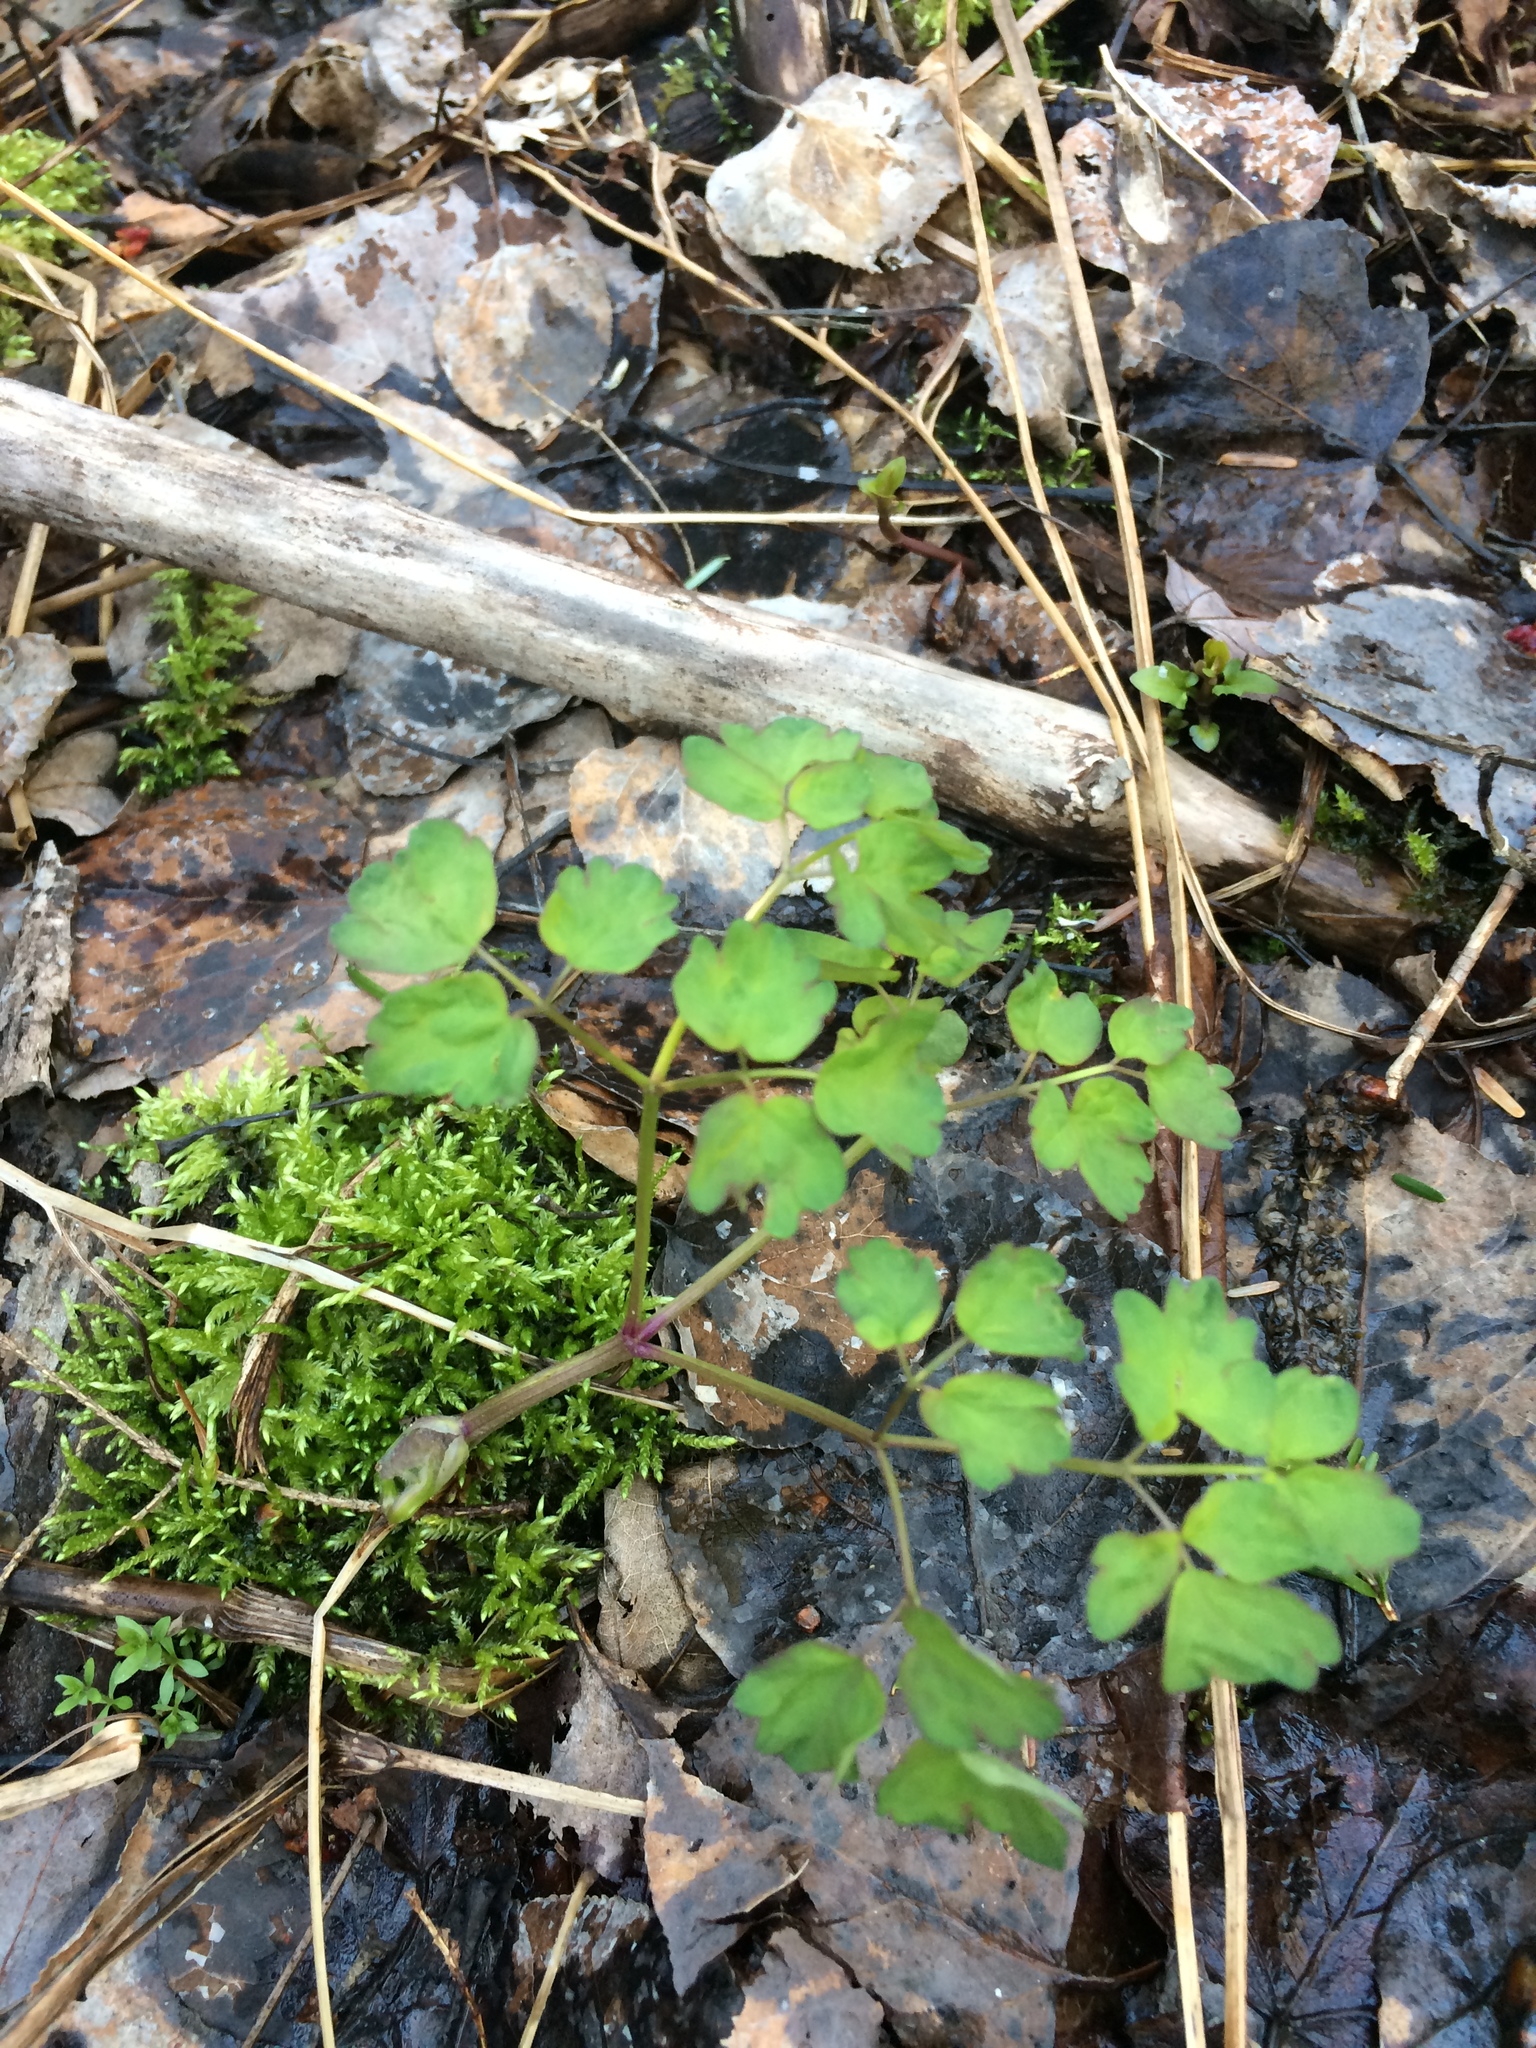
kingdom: Plantae
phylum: Tracheophyta
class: Magnoliopsida
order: Ranunculales
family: Ranunculaceae
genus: Thalictrum
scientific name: Thalictrum pubescens
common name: King-of-the-meadow
